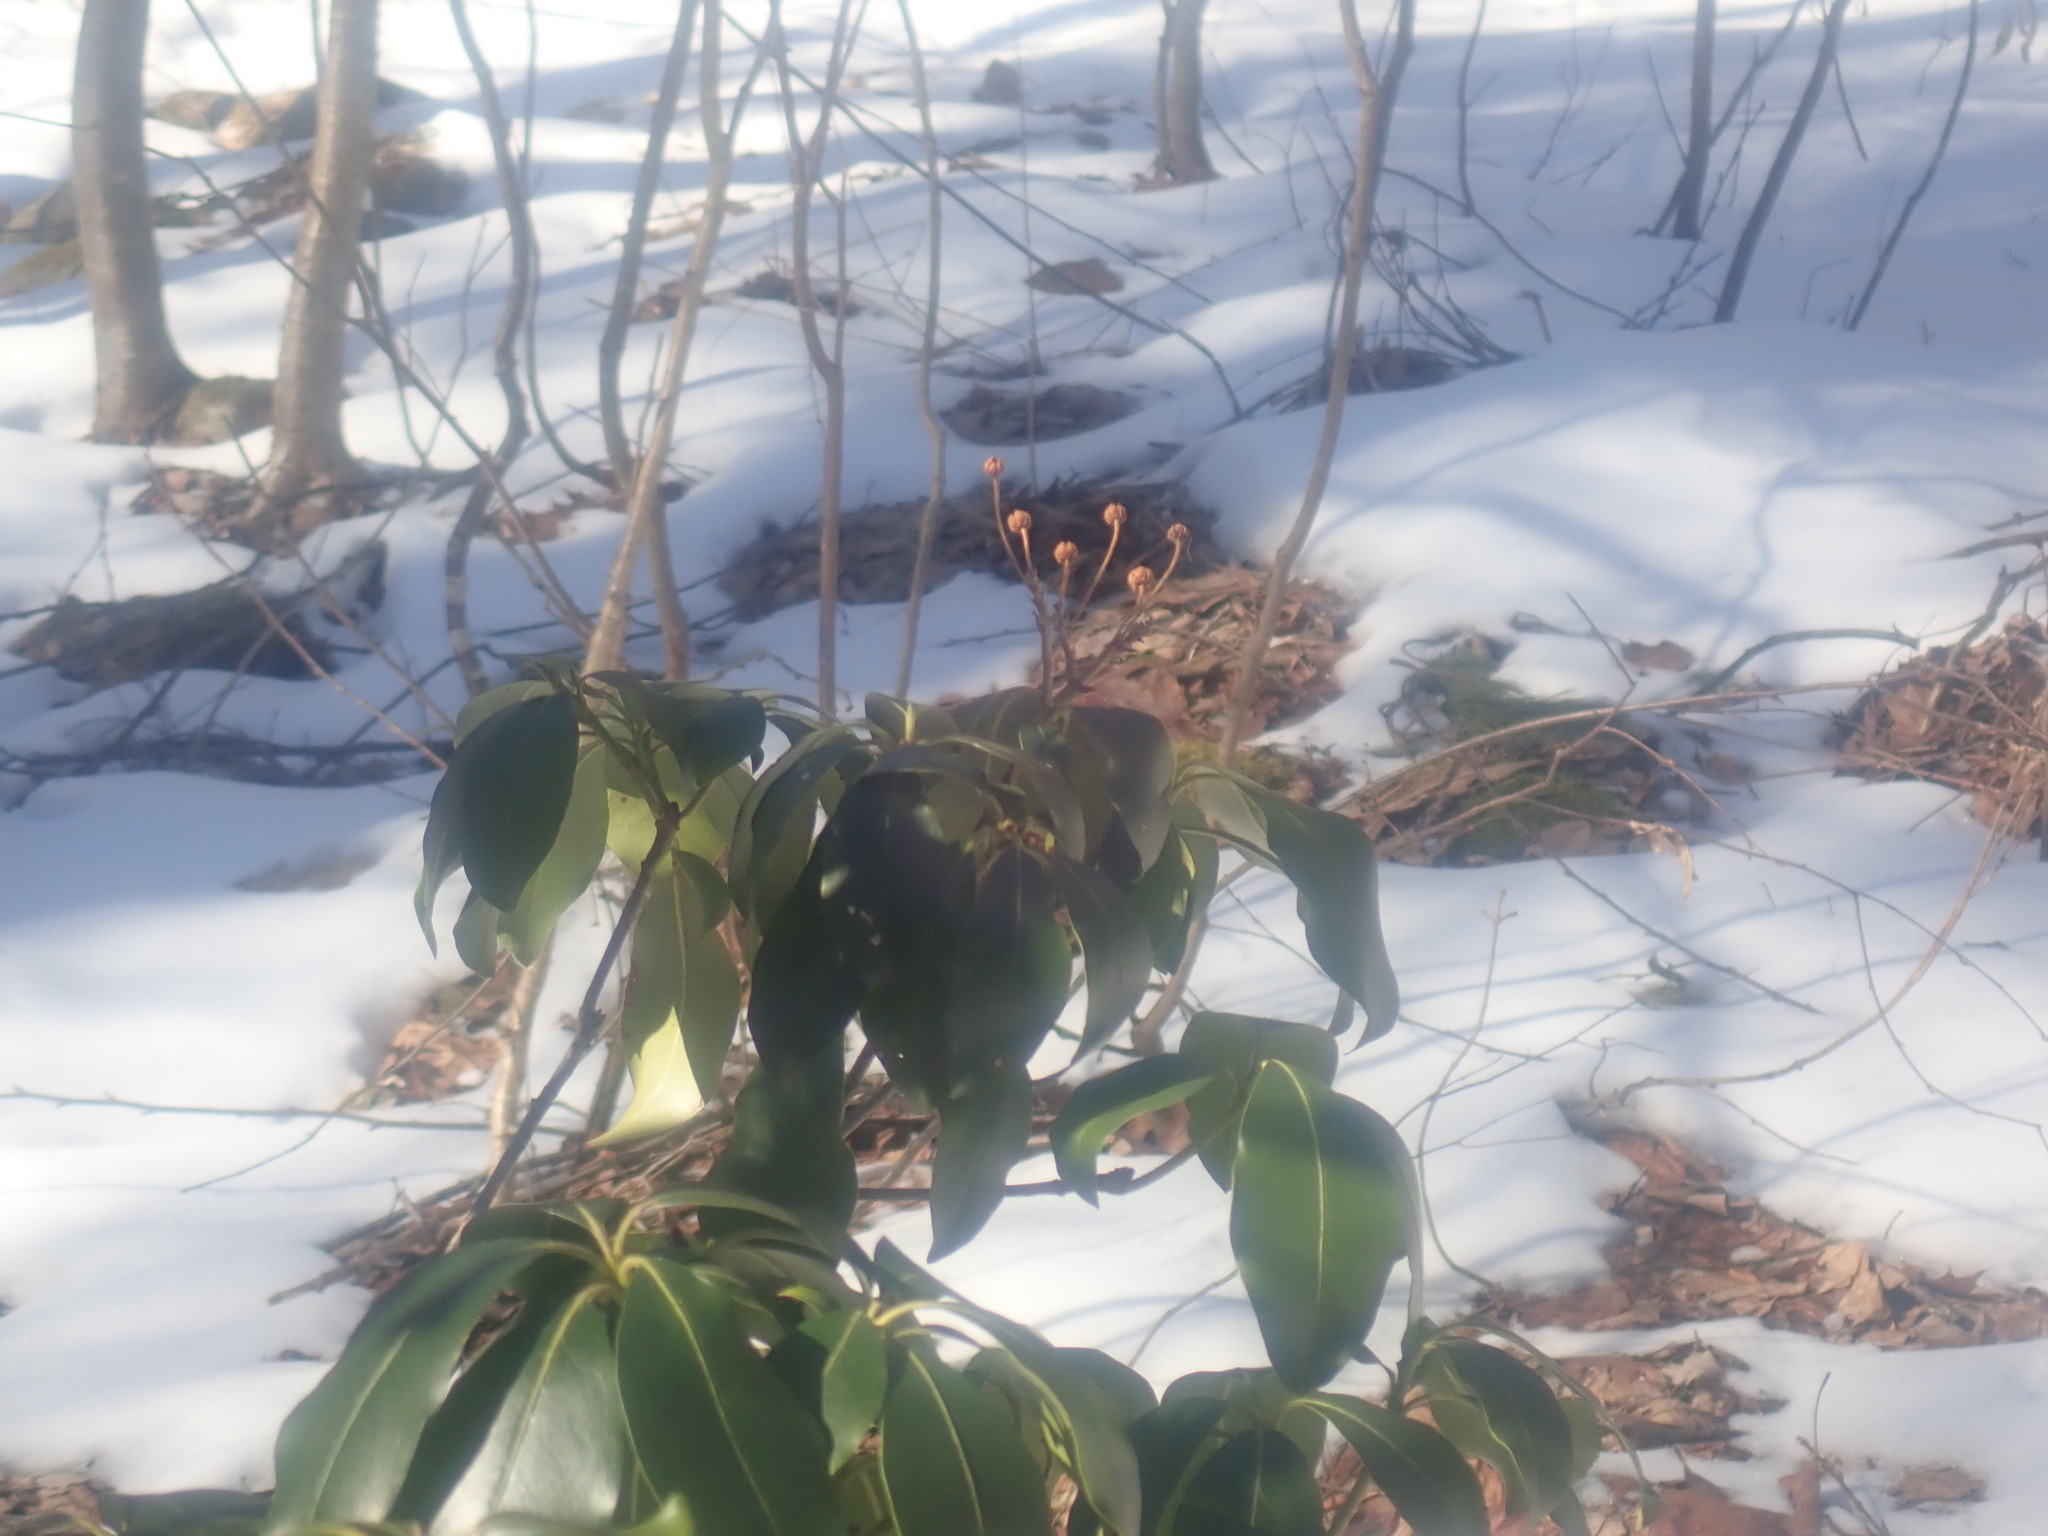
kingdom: Plantae
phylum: Tracheophyta
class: Magnoliopsida
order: Ericales
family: Ericaceae
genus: Kalmia
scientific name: Kalmia latifolia
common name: Mountain-laurel
